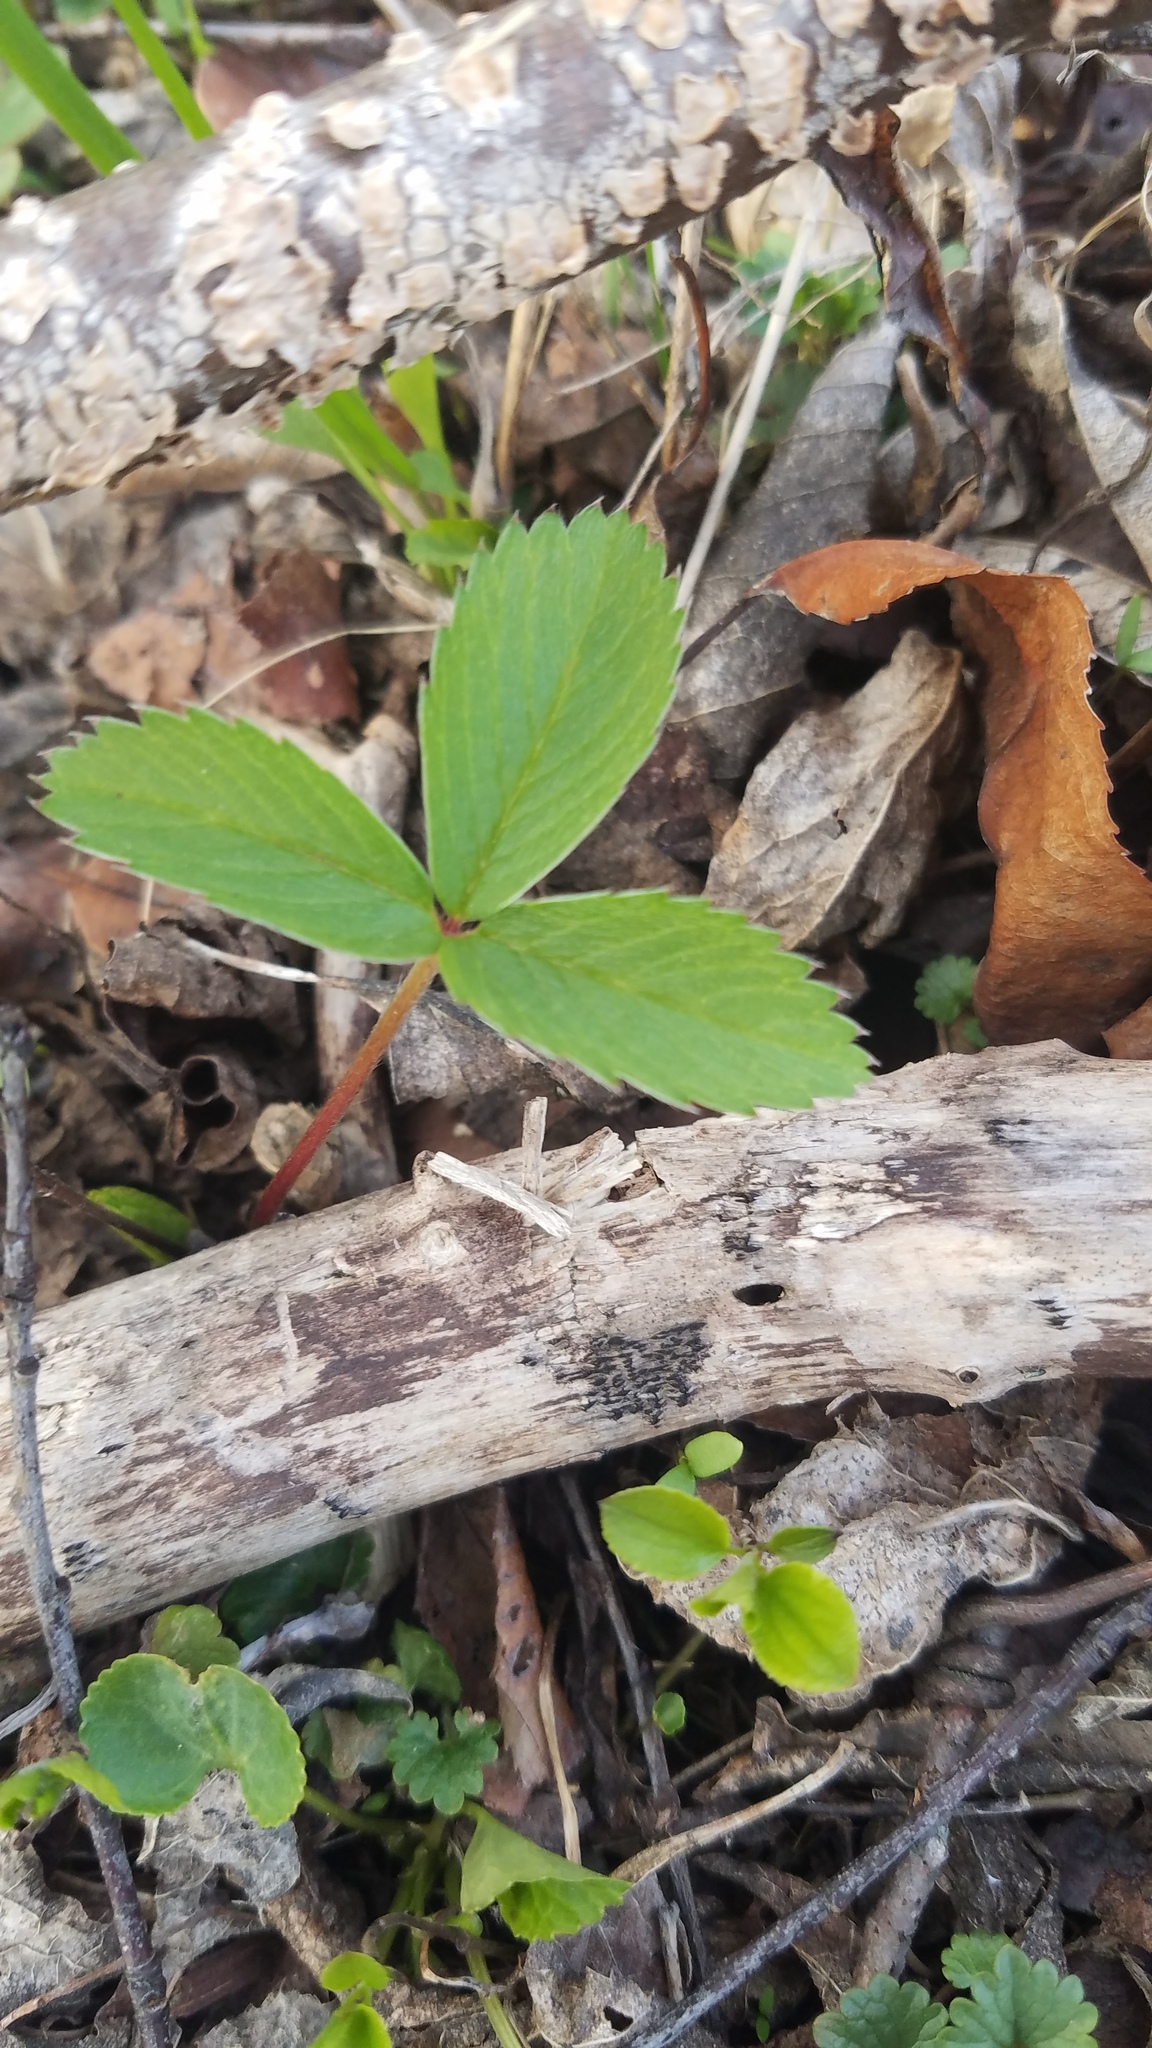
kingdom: Plantae
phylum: Tracheophyta
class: Magnoliopsida
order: Rosales
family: Rosaceae
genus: Fragaria
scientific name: Fragaria virginiana
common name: Thickleaved wild strawberry
